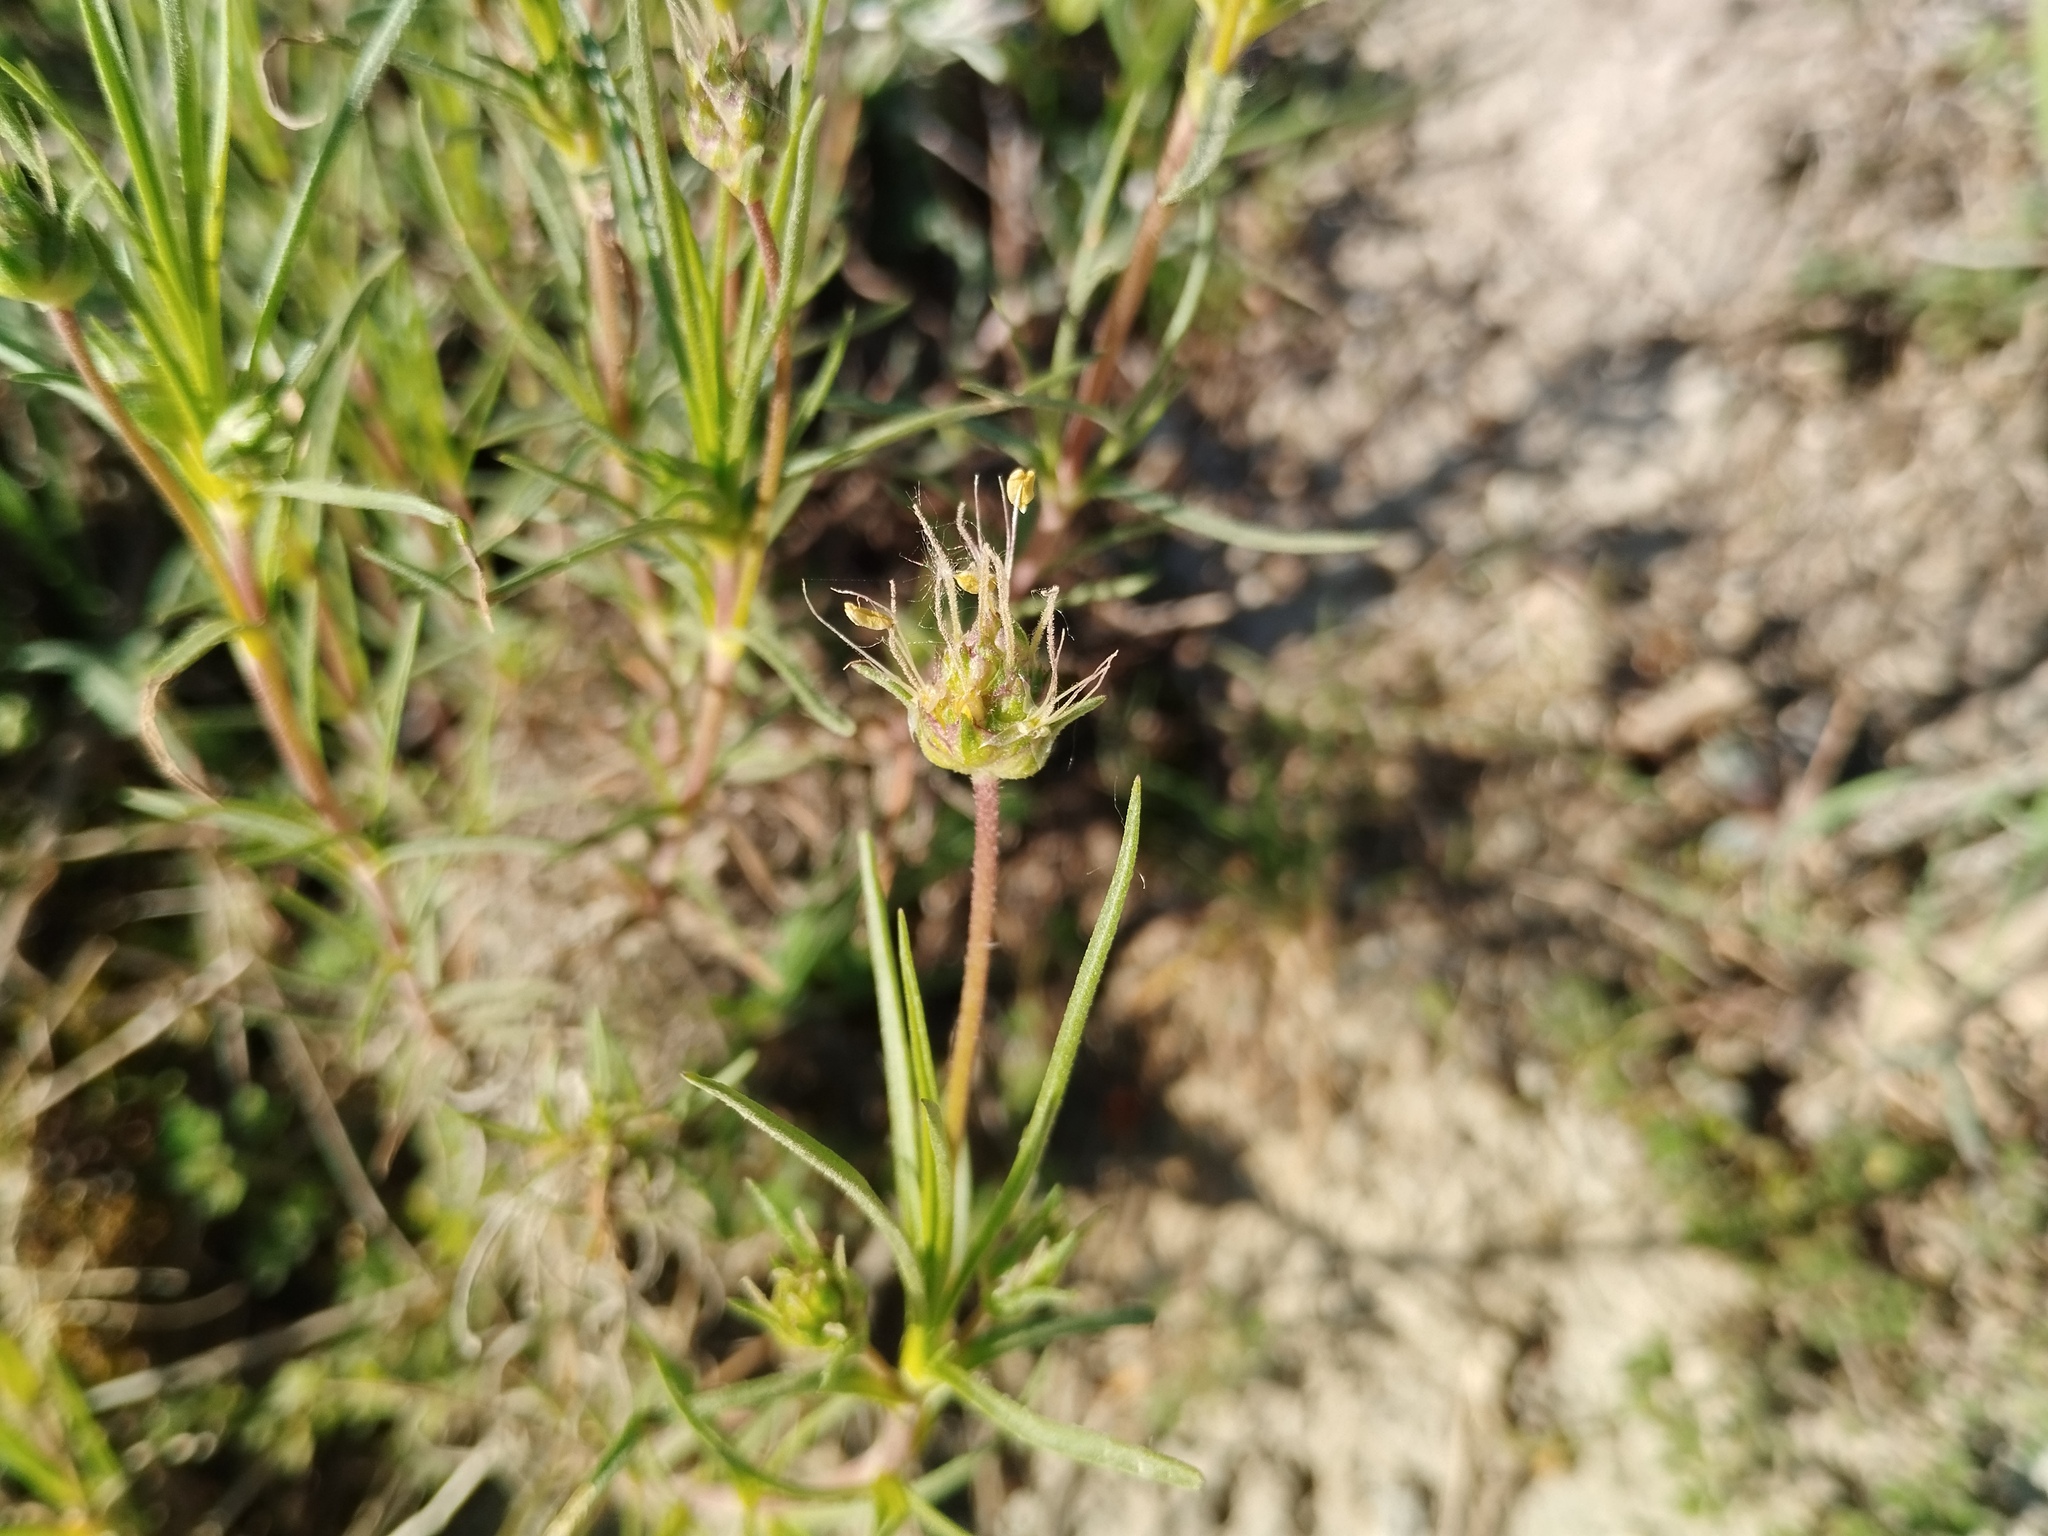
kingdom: Plantae
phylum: Tracheophyta
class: Magnoliopsida
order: Lamiales
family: Plantaginaceae
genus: Plantago
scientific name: Plantago sempervirens
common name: Shrubby plantain
